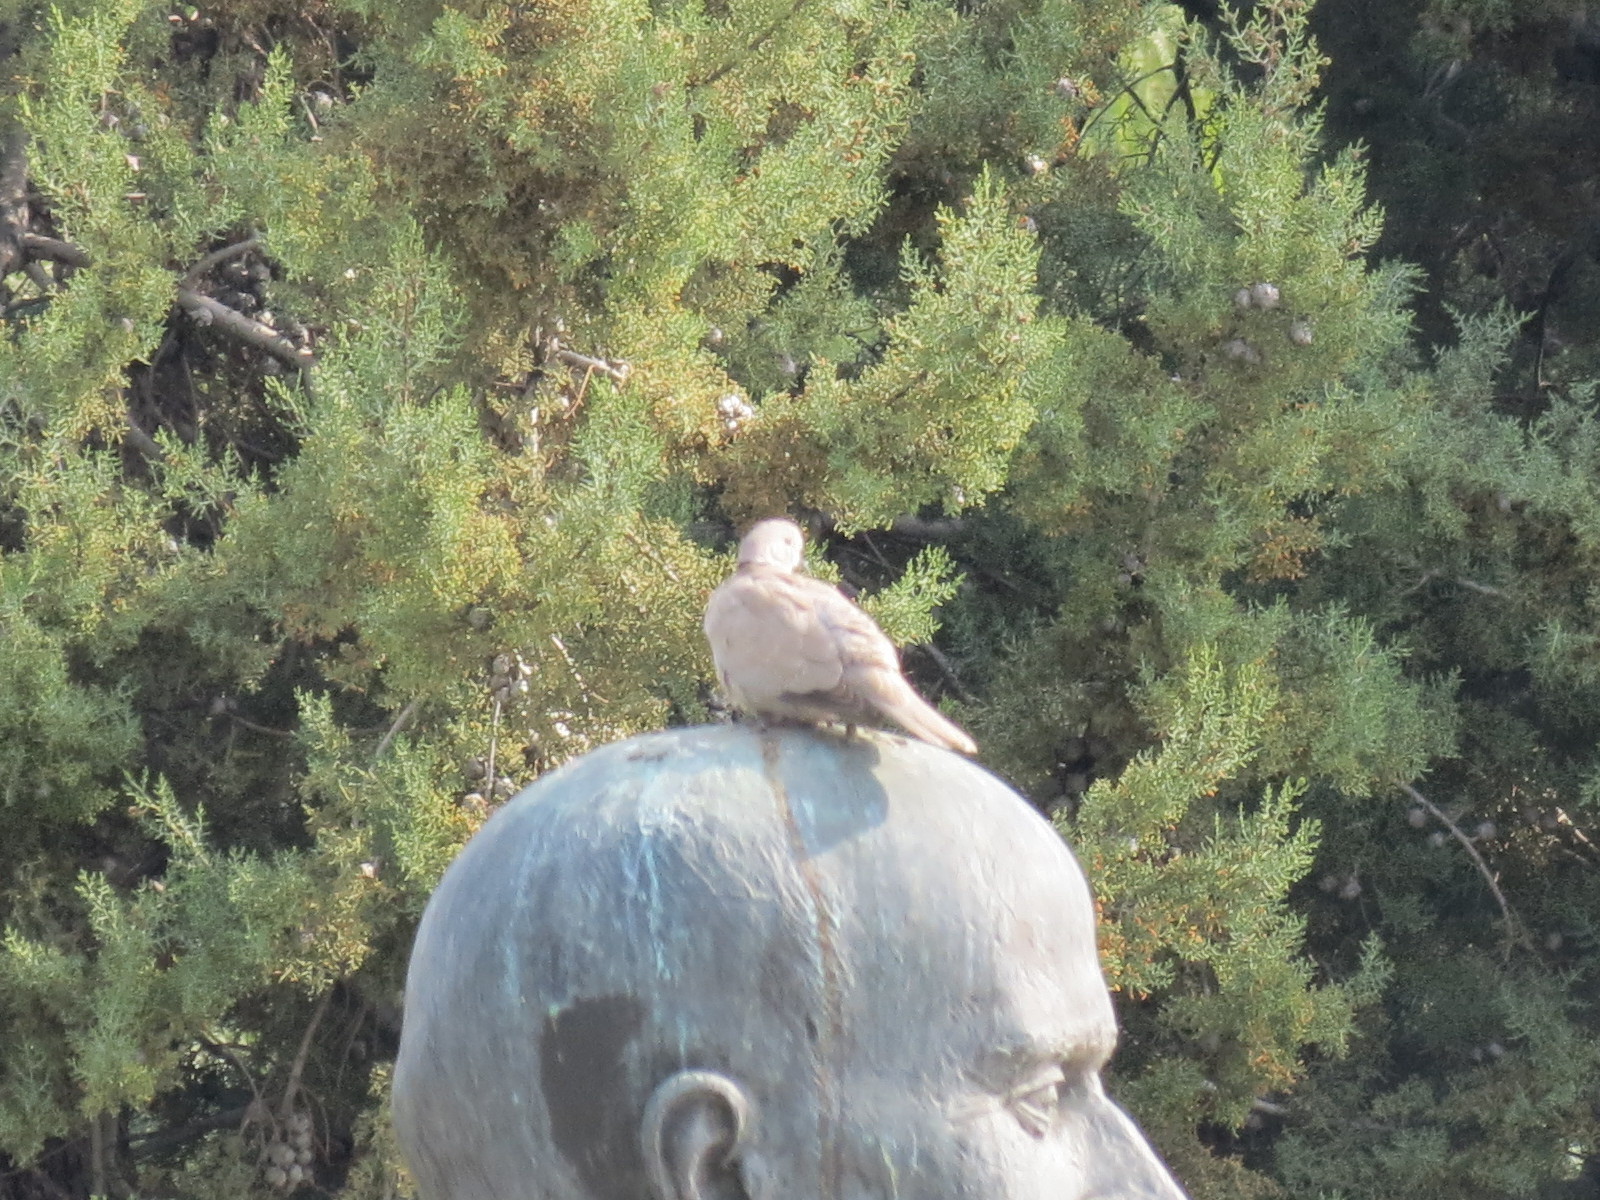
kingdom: Animalia
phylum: Chordata
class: Aves
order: Columbiformes
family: Columbidae
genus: Streptopelia
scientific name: Streptopelia decaocto
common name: Eurasian collared dove
